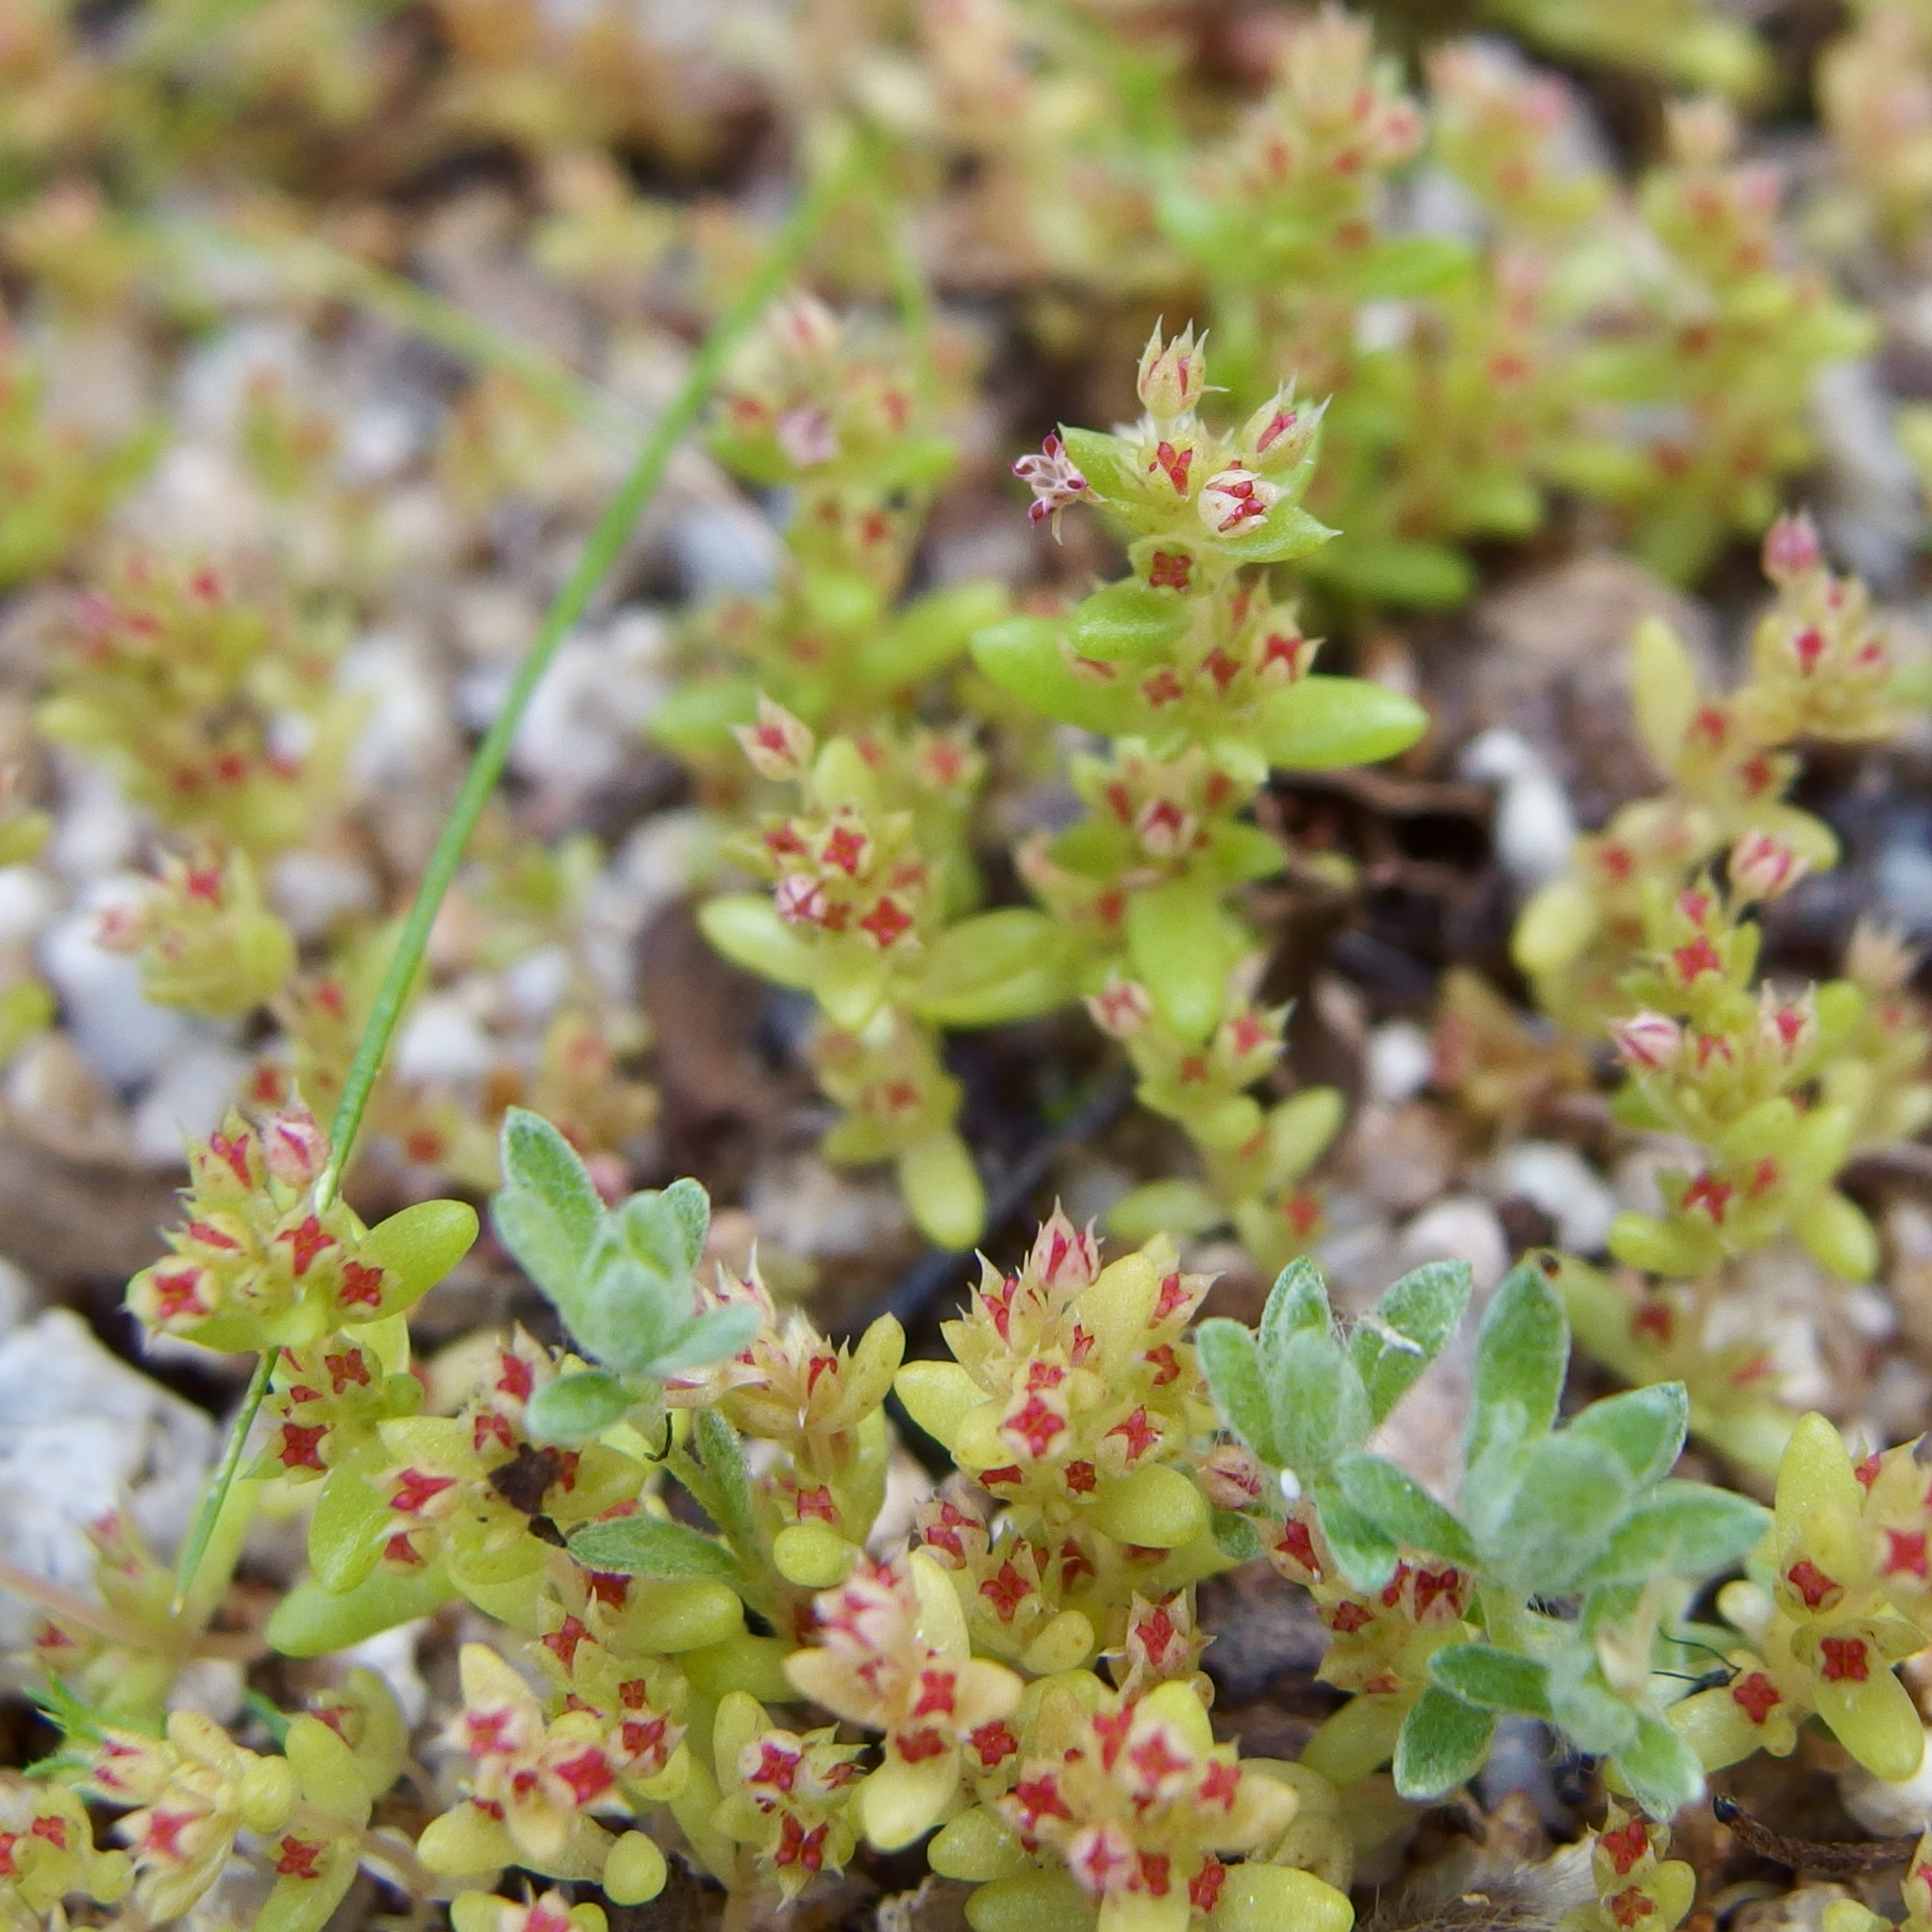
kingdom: Plantae
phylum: Tracheophyta
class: Magnoliopsida
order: Saxifragales
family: Crassulaceae
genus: Crassula
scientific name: Crassula connata
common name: Erect pygmyweed
